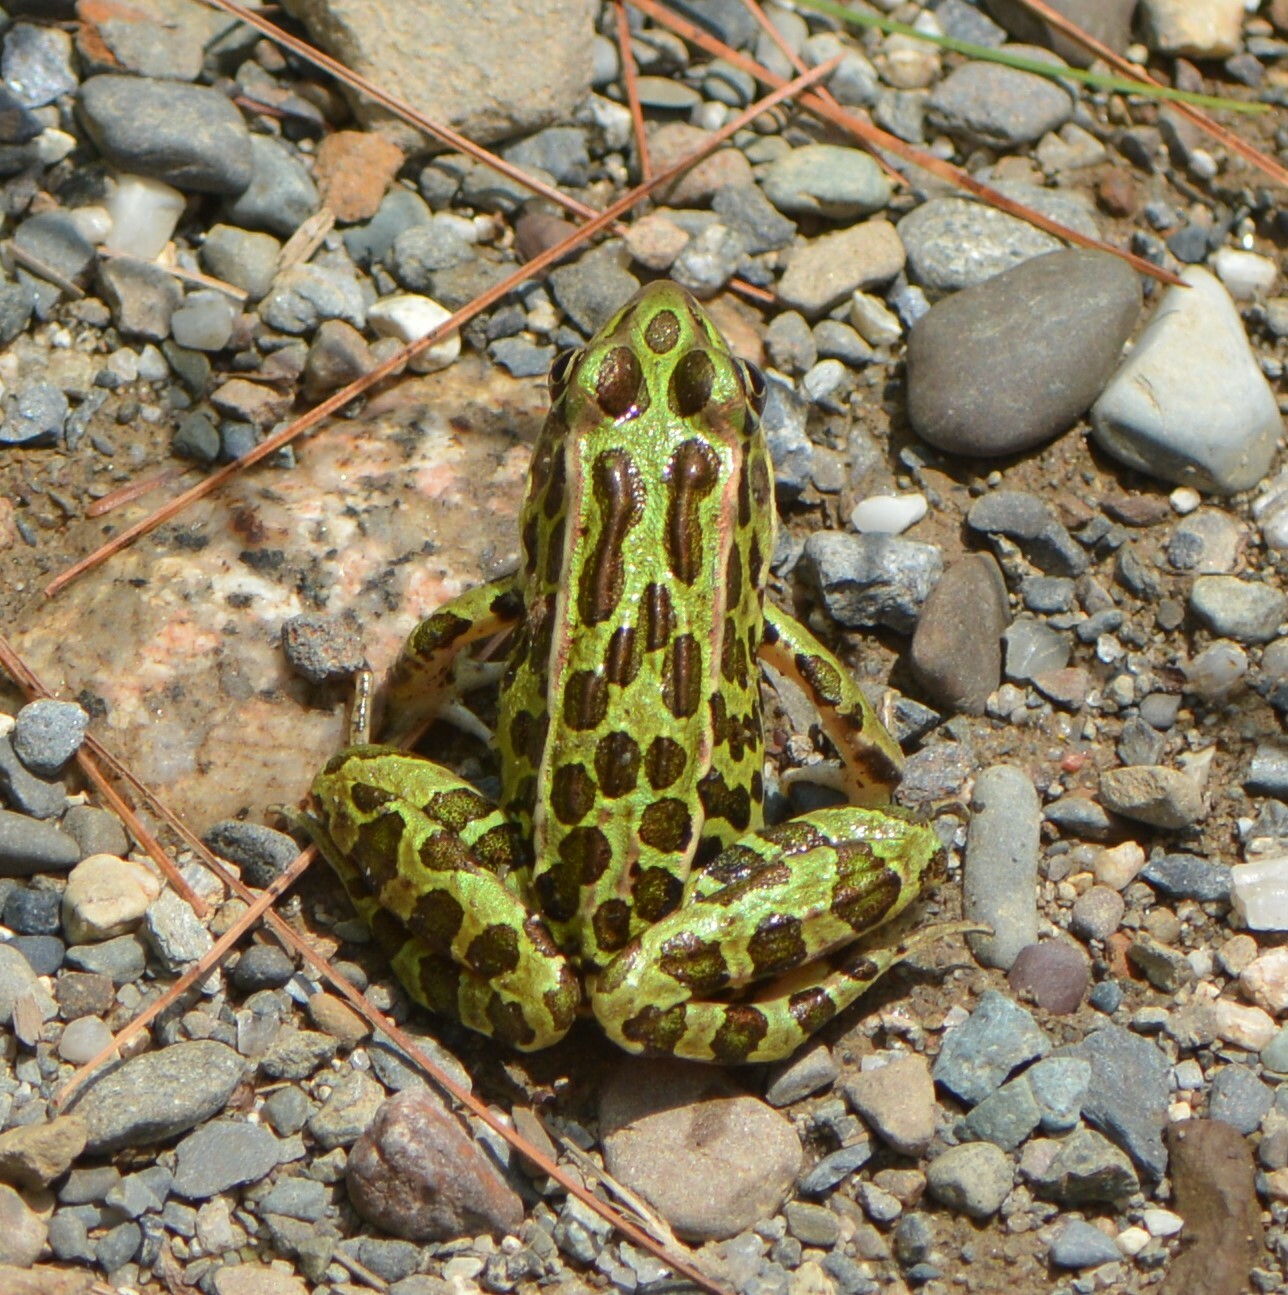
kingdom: Animalia
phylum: Chordata
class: Amphibia
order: Anura
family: Ranidae
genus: Lithobates
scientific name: Lithobates pipiens
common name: Northern leopard frog
